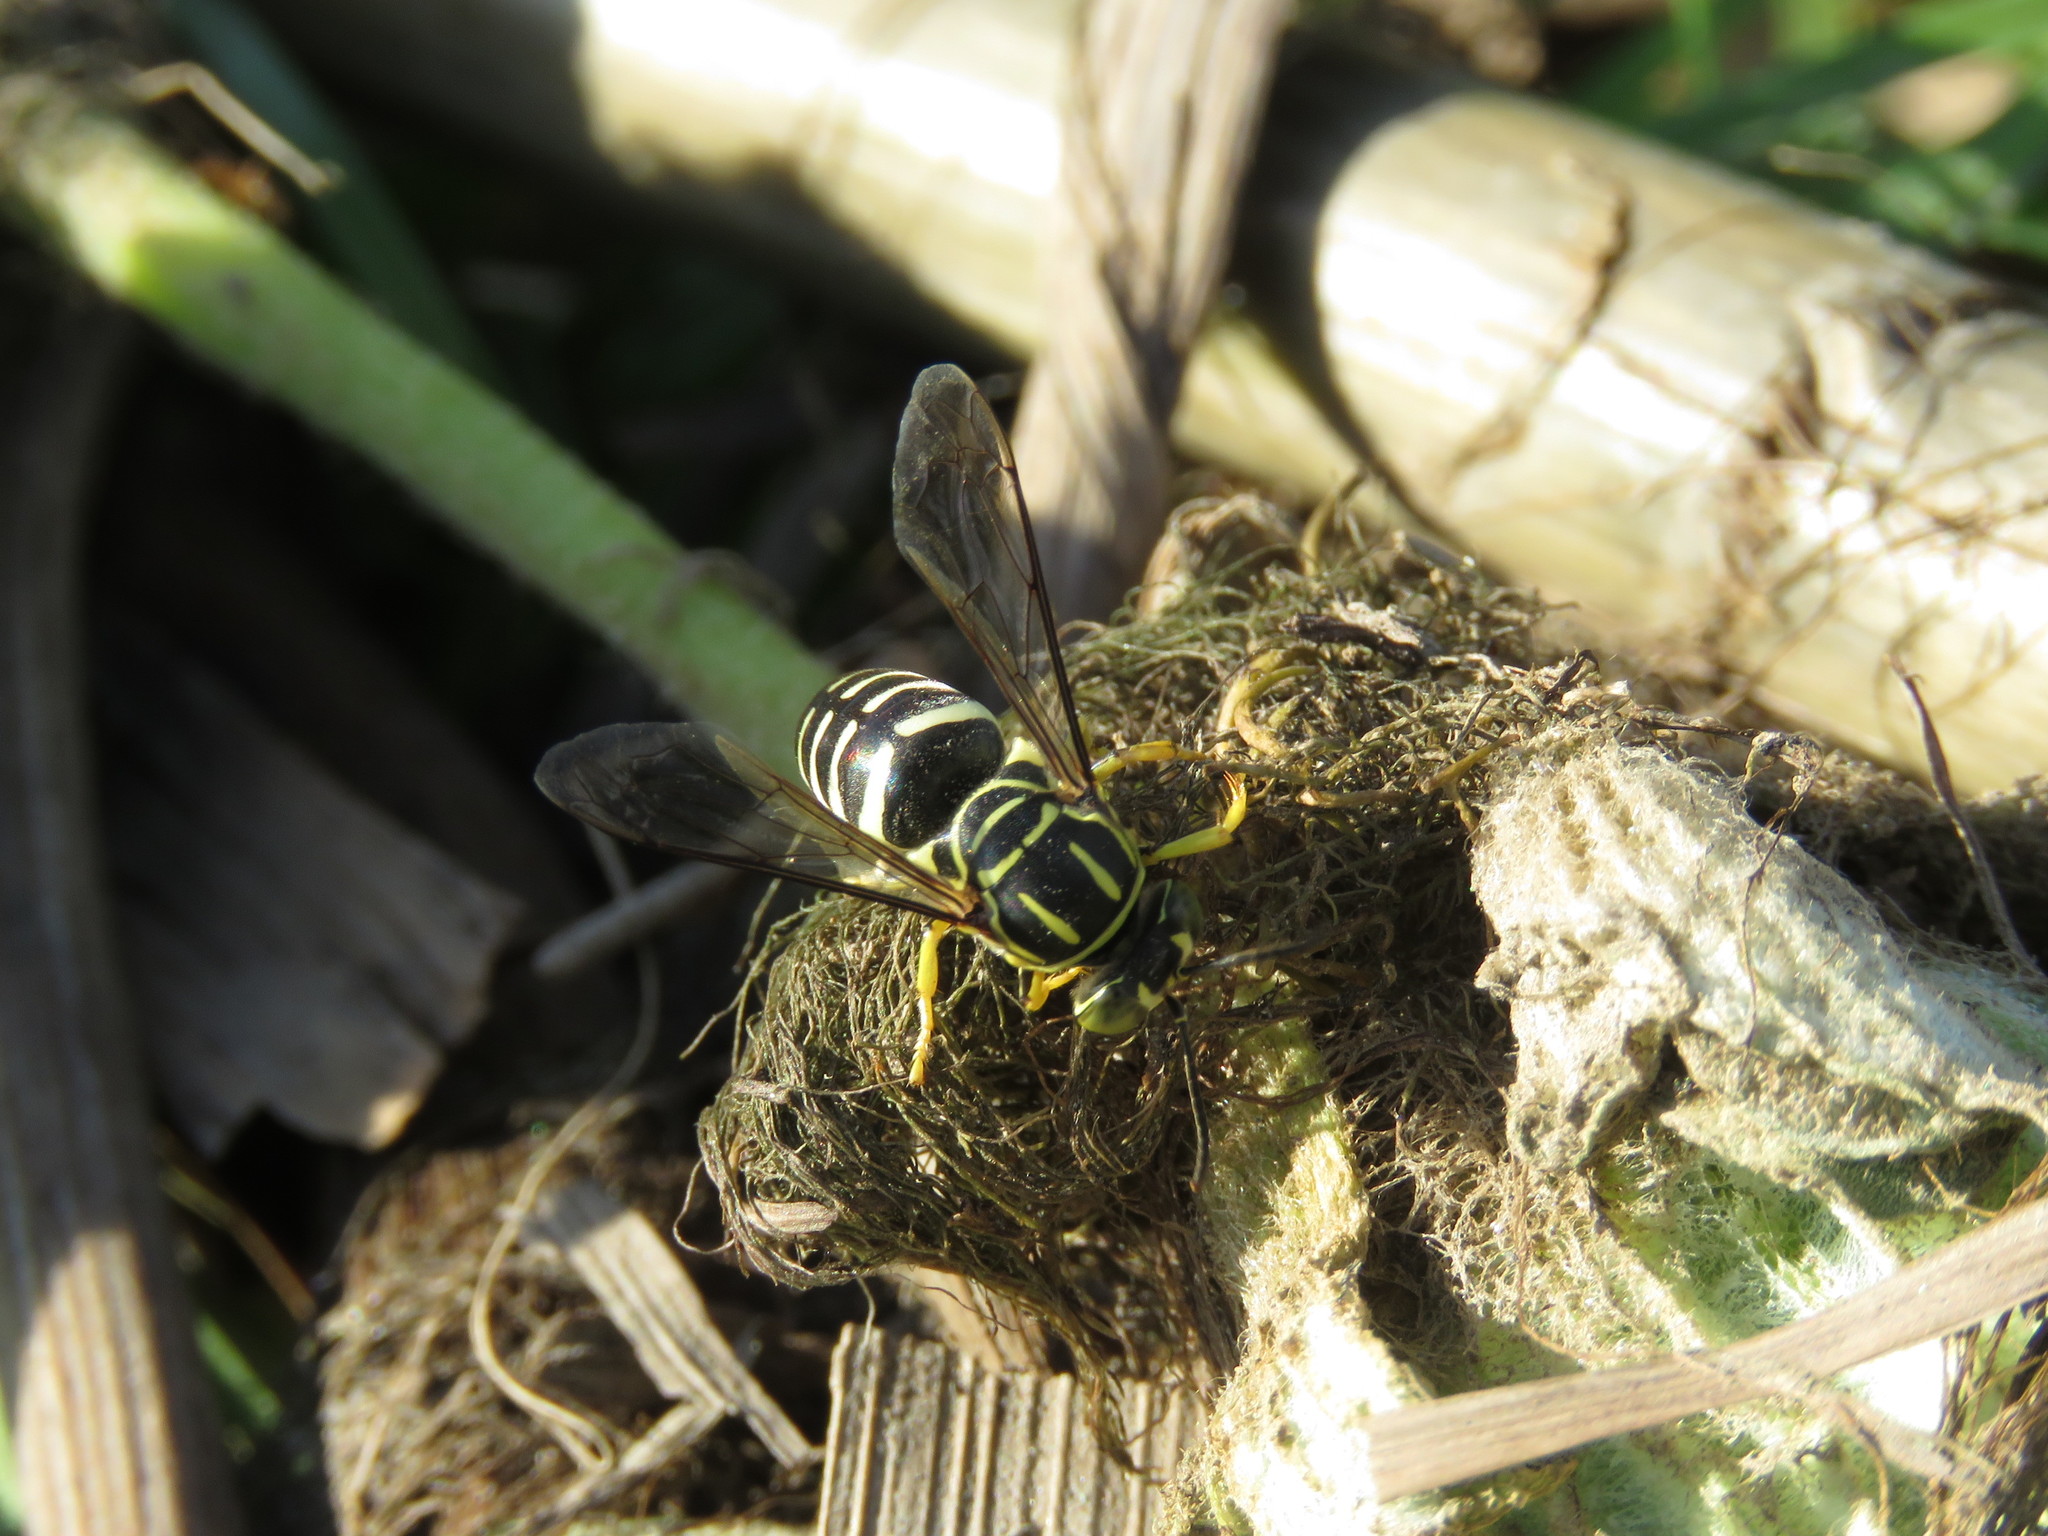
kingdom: Animalia
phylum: Arthropoda
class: Insecta
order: Hymenoptera
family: Crabronidae
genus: Bicyrtes
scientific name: Bicyrtes variegatus
